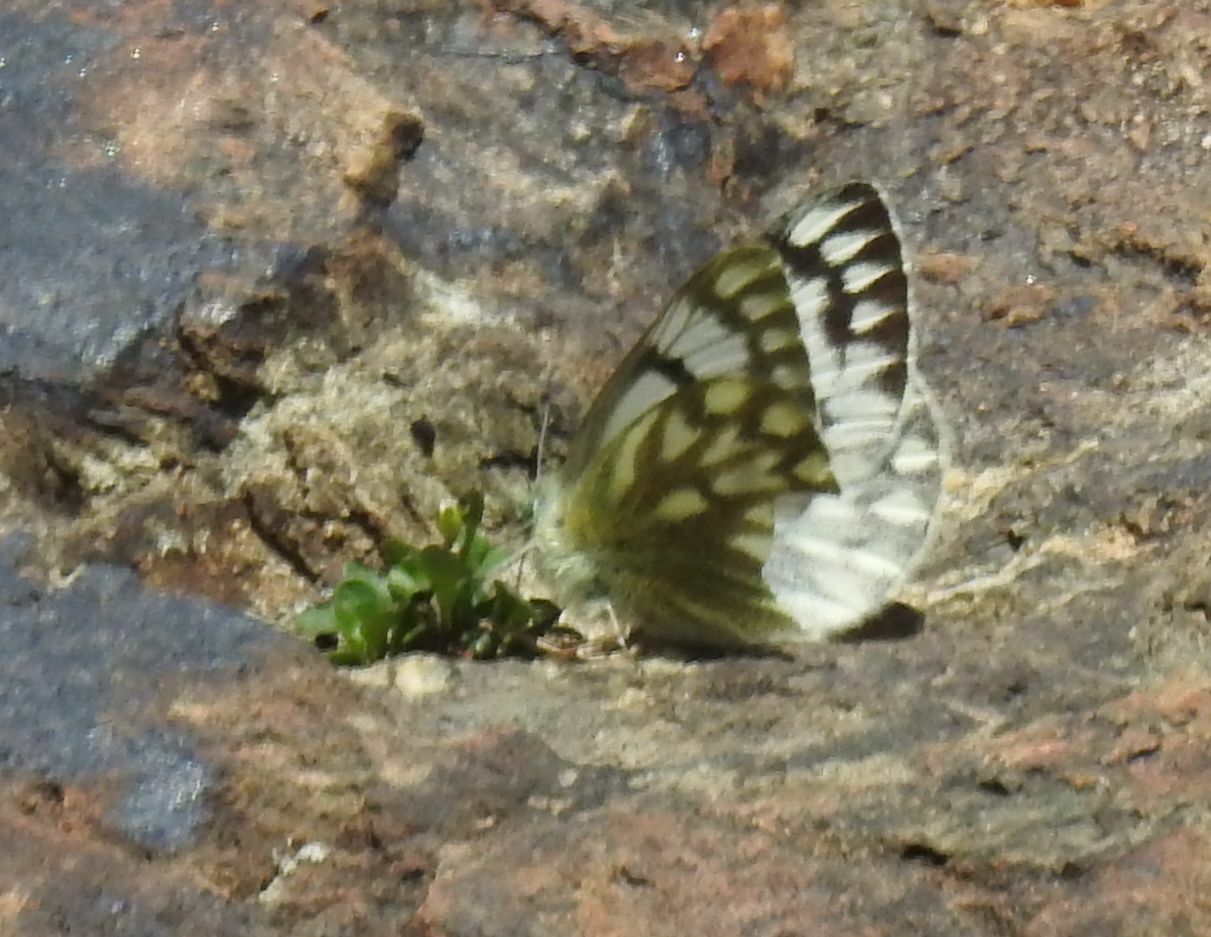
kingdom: Animalia
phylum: Arthropoda
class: Insecta
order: Lepidoptera
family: Pieridae
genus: Pontia
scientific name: Pontia callidice
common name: Peak white
